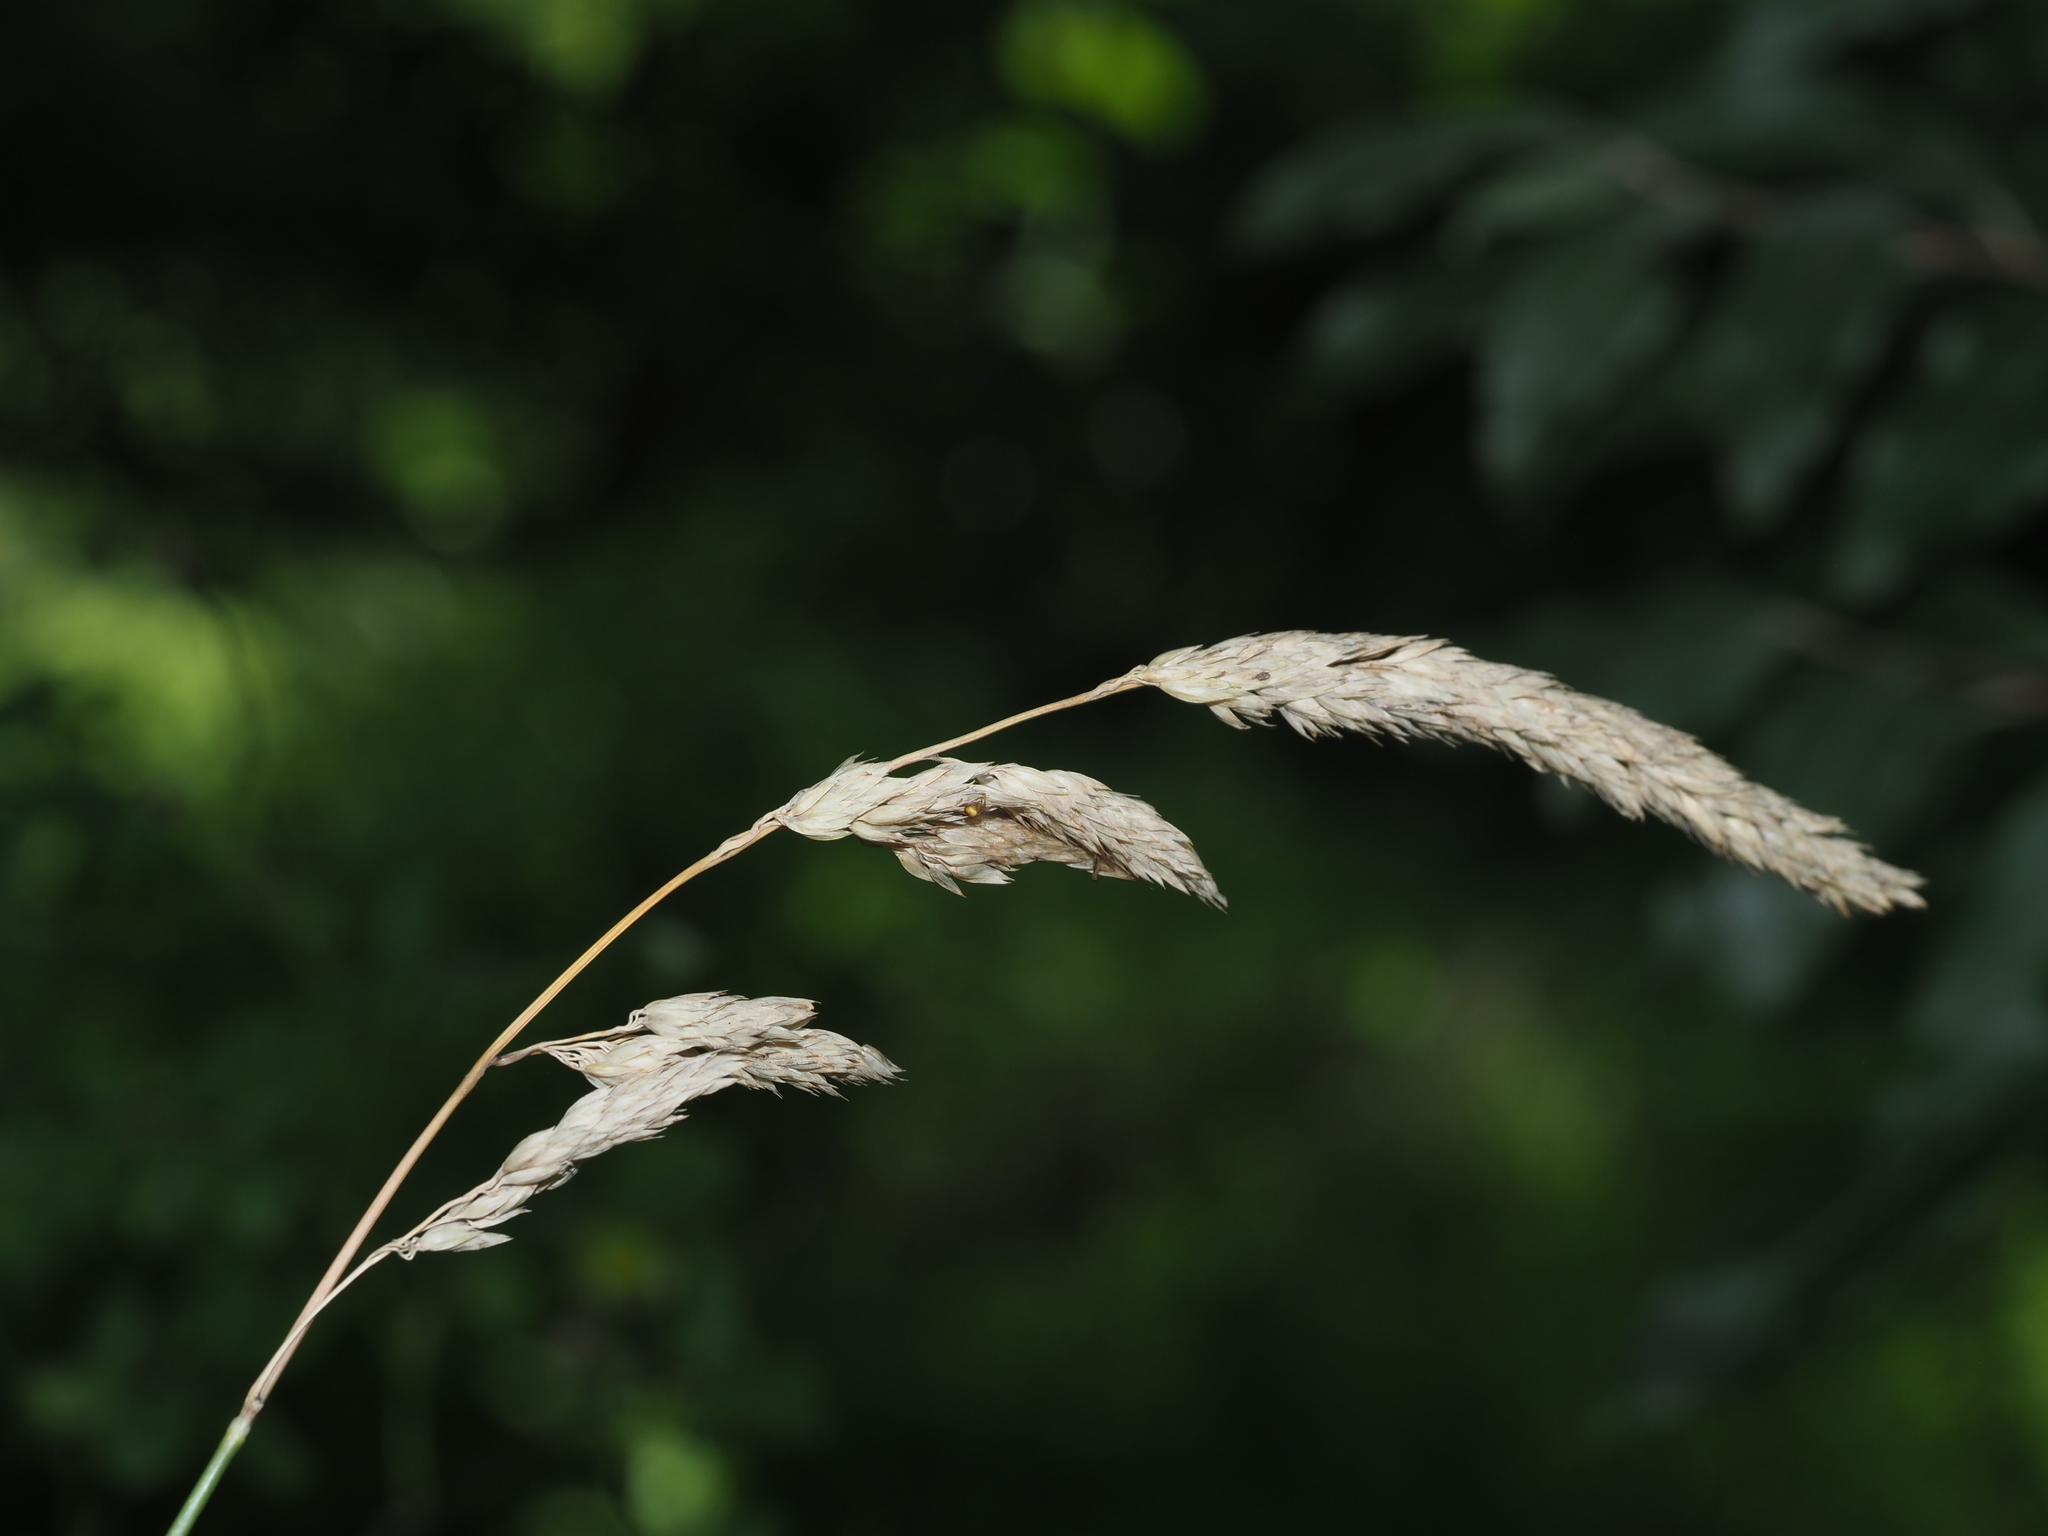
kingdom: Plantae
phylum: Tracheophyta
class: Liliopsida
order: Poales
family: Poaceae
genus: Dactylis
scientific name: Dactylis glomerata
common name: Orchardgrass
